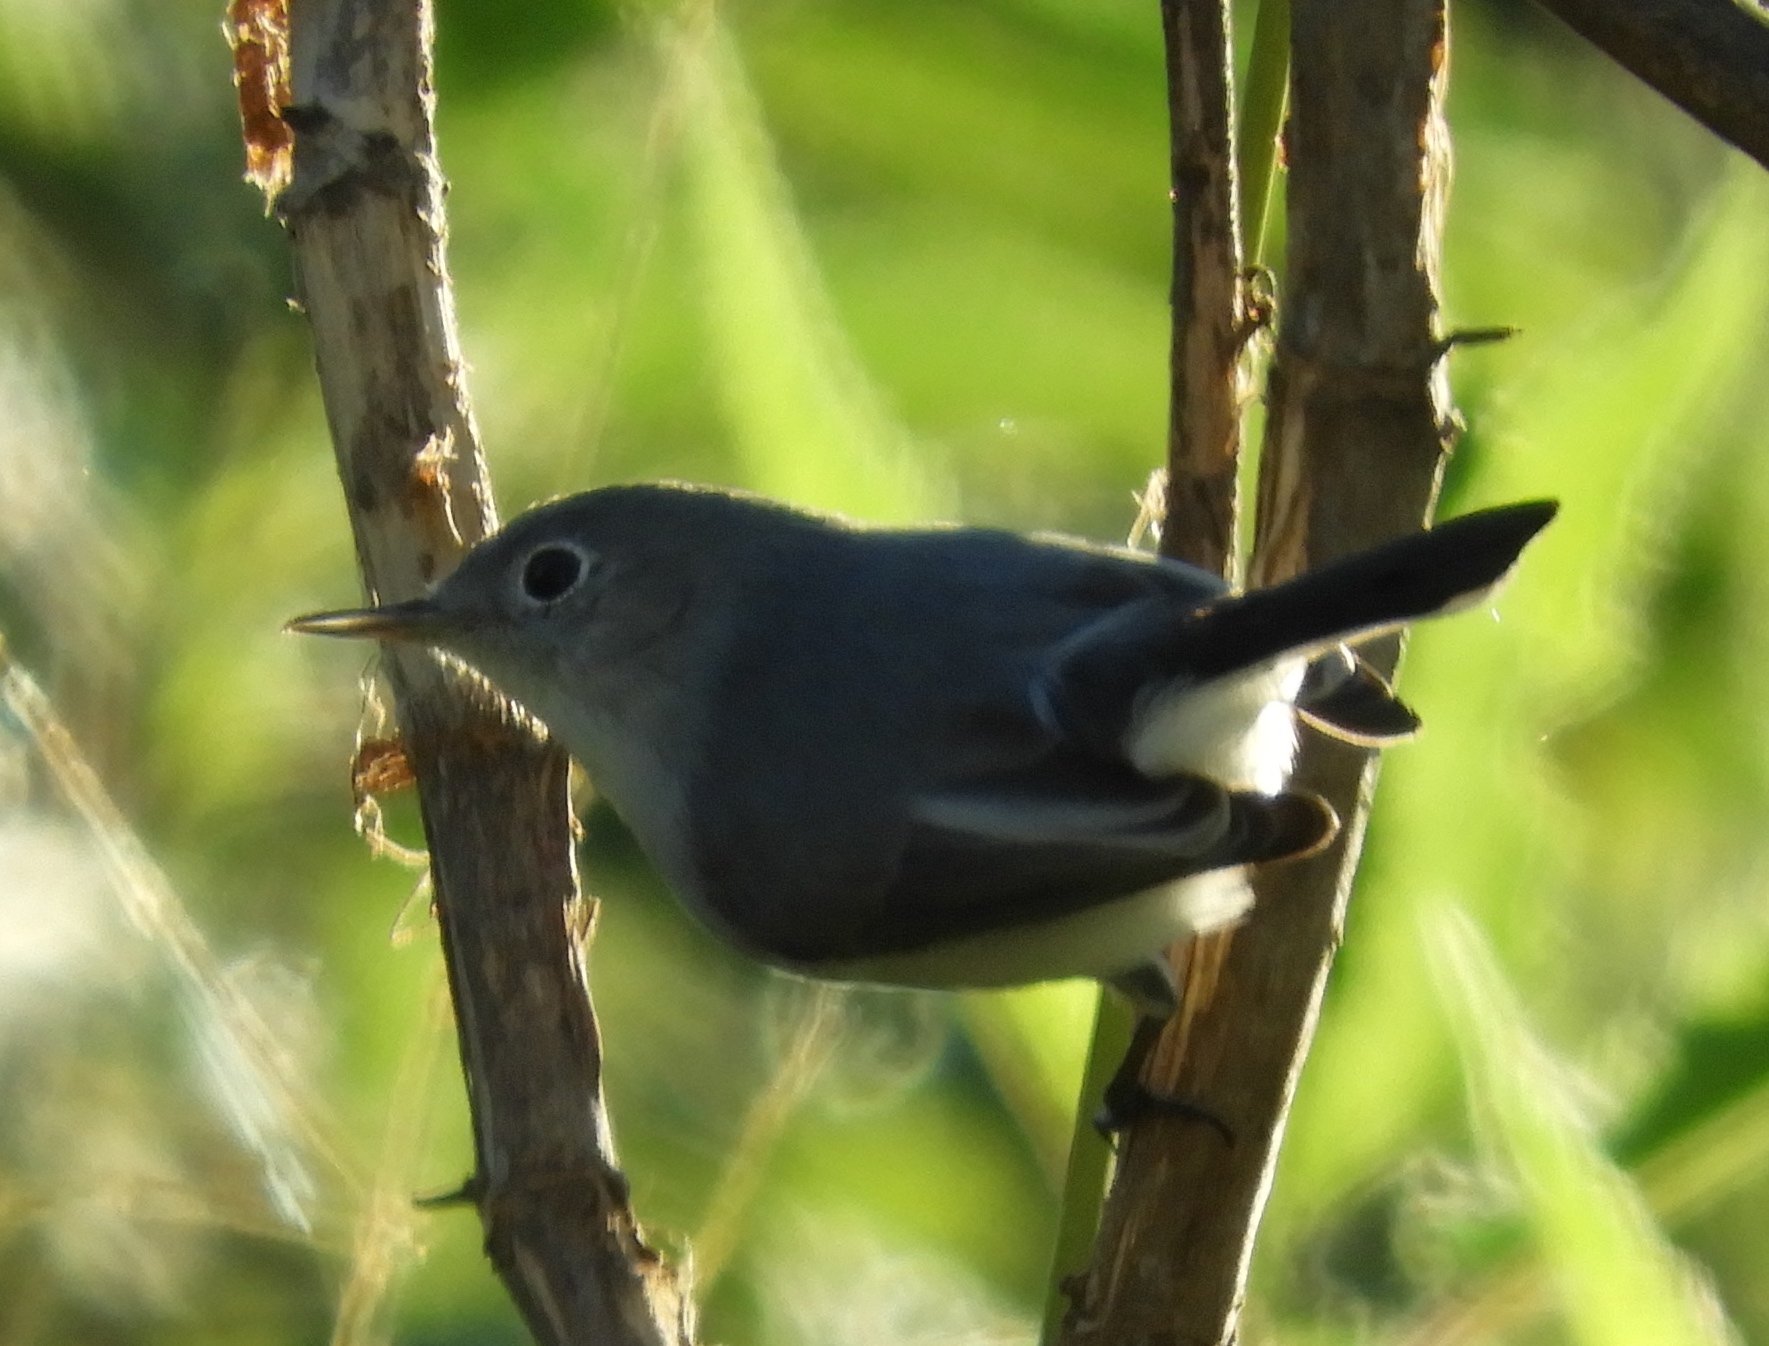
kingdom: Animalia
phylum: Chordata
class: Aves
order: Passeriformes
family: Polioptilidae
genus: Polioptila
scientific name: Polioptila caerulea
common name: Blue-gray gnatcatcher
